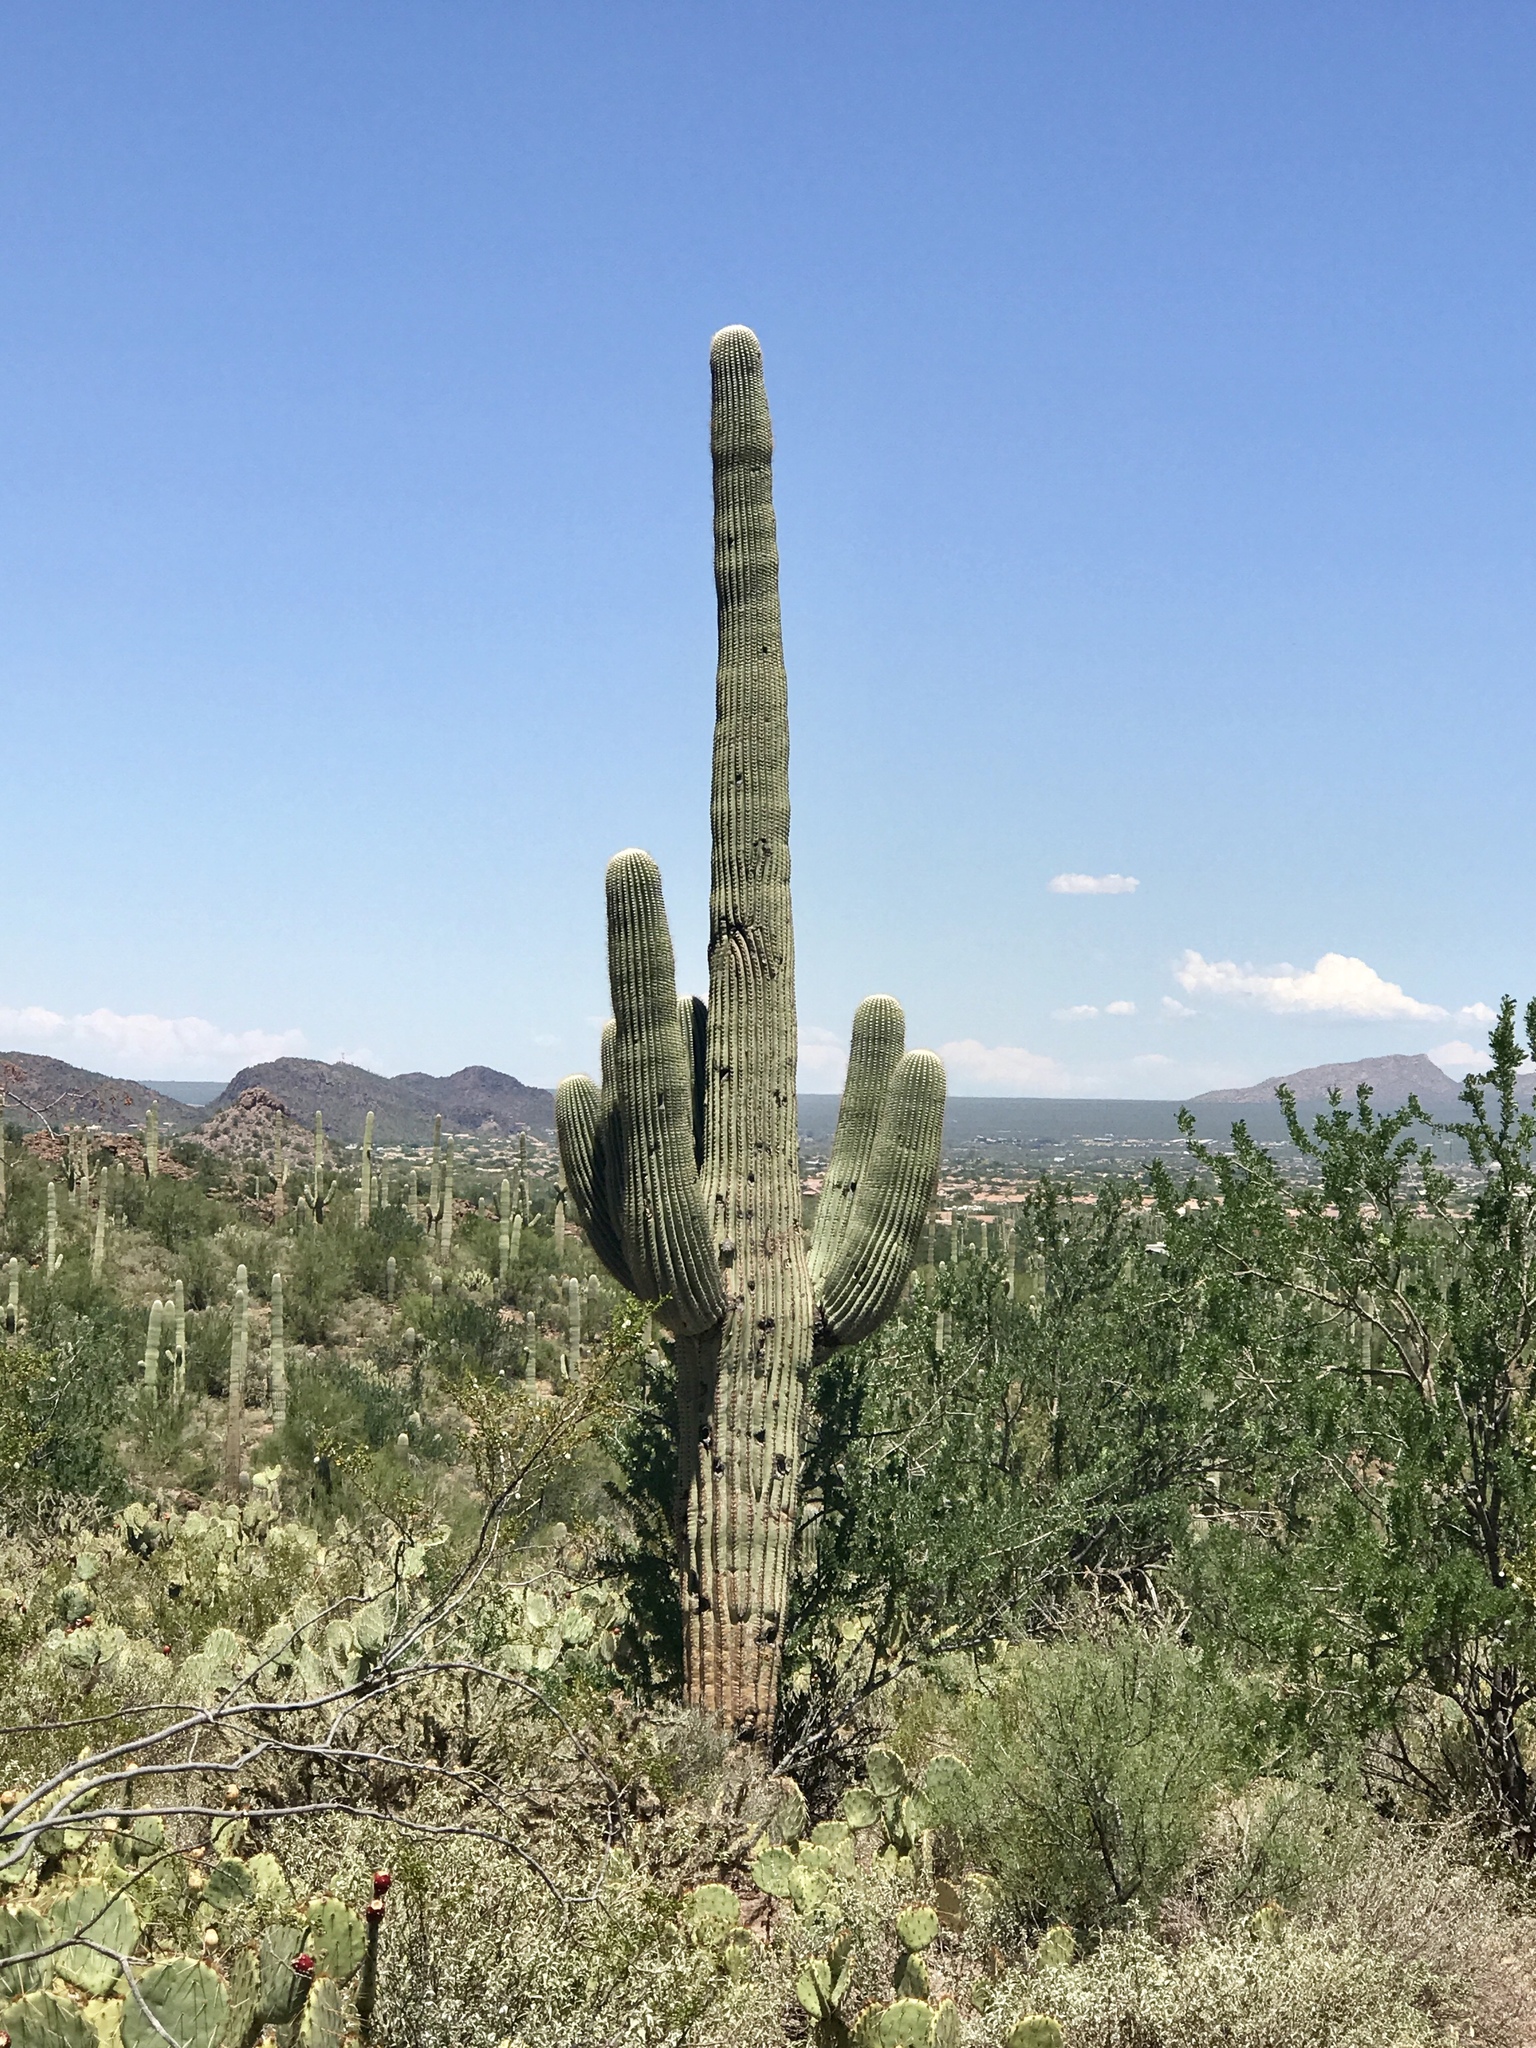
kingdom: Plantae
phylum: Tracheophyta
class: Magnoliopsida
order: Caryophyllales
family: Cactaceae
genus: Carnegiea
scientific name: Carnegiea gigantea
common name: Saguaro
